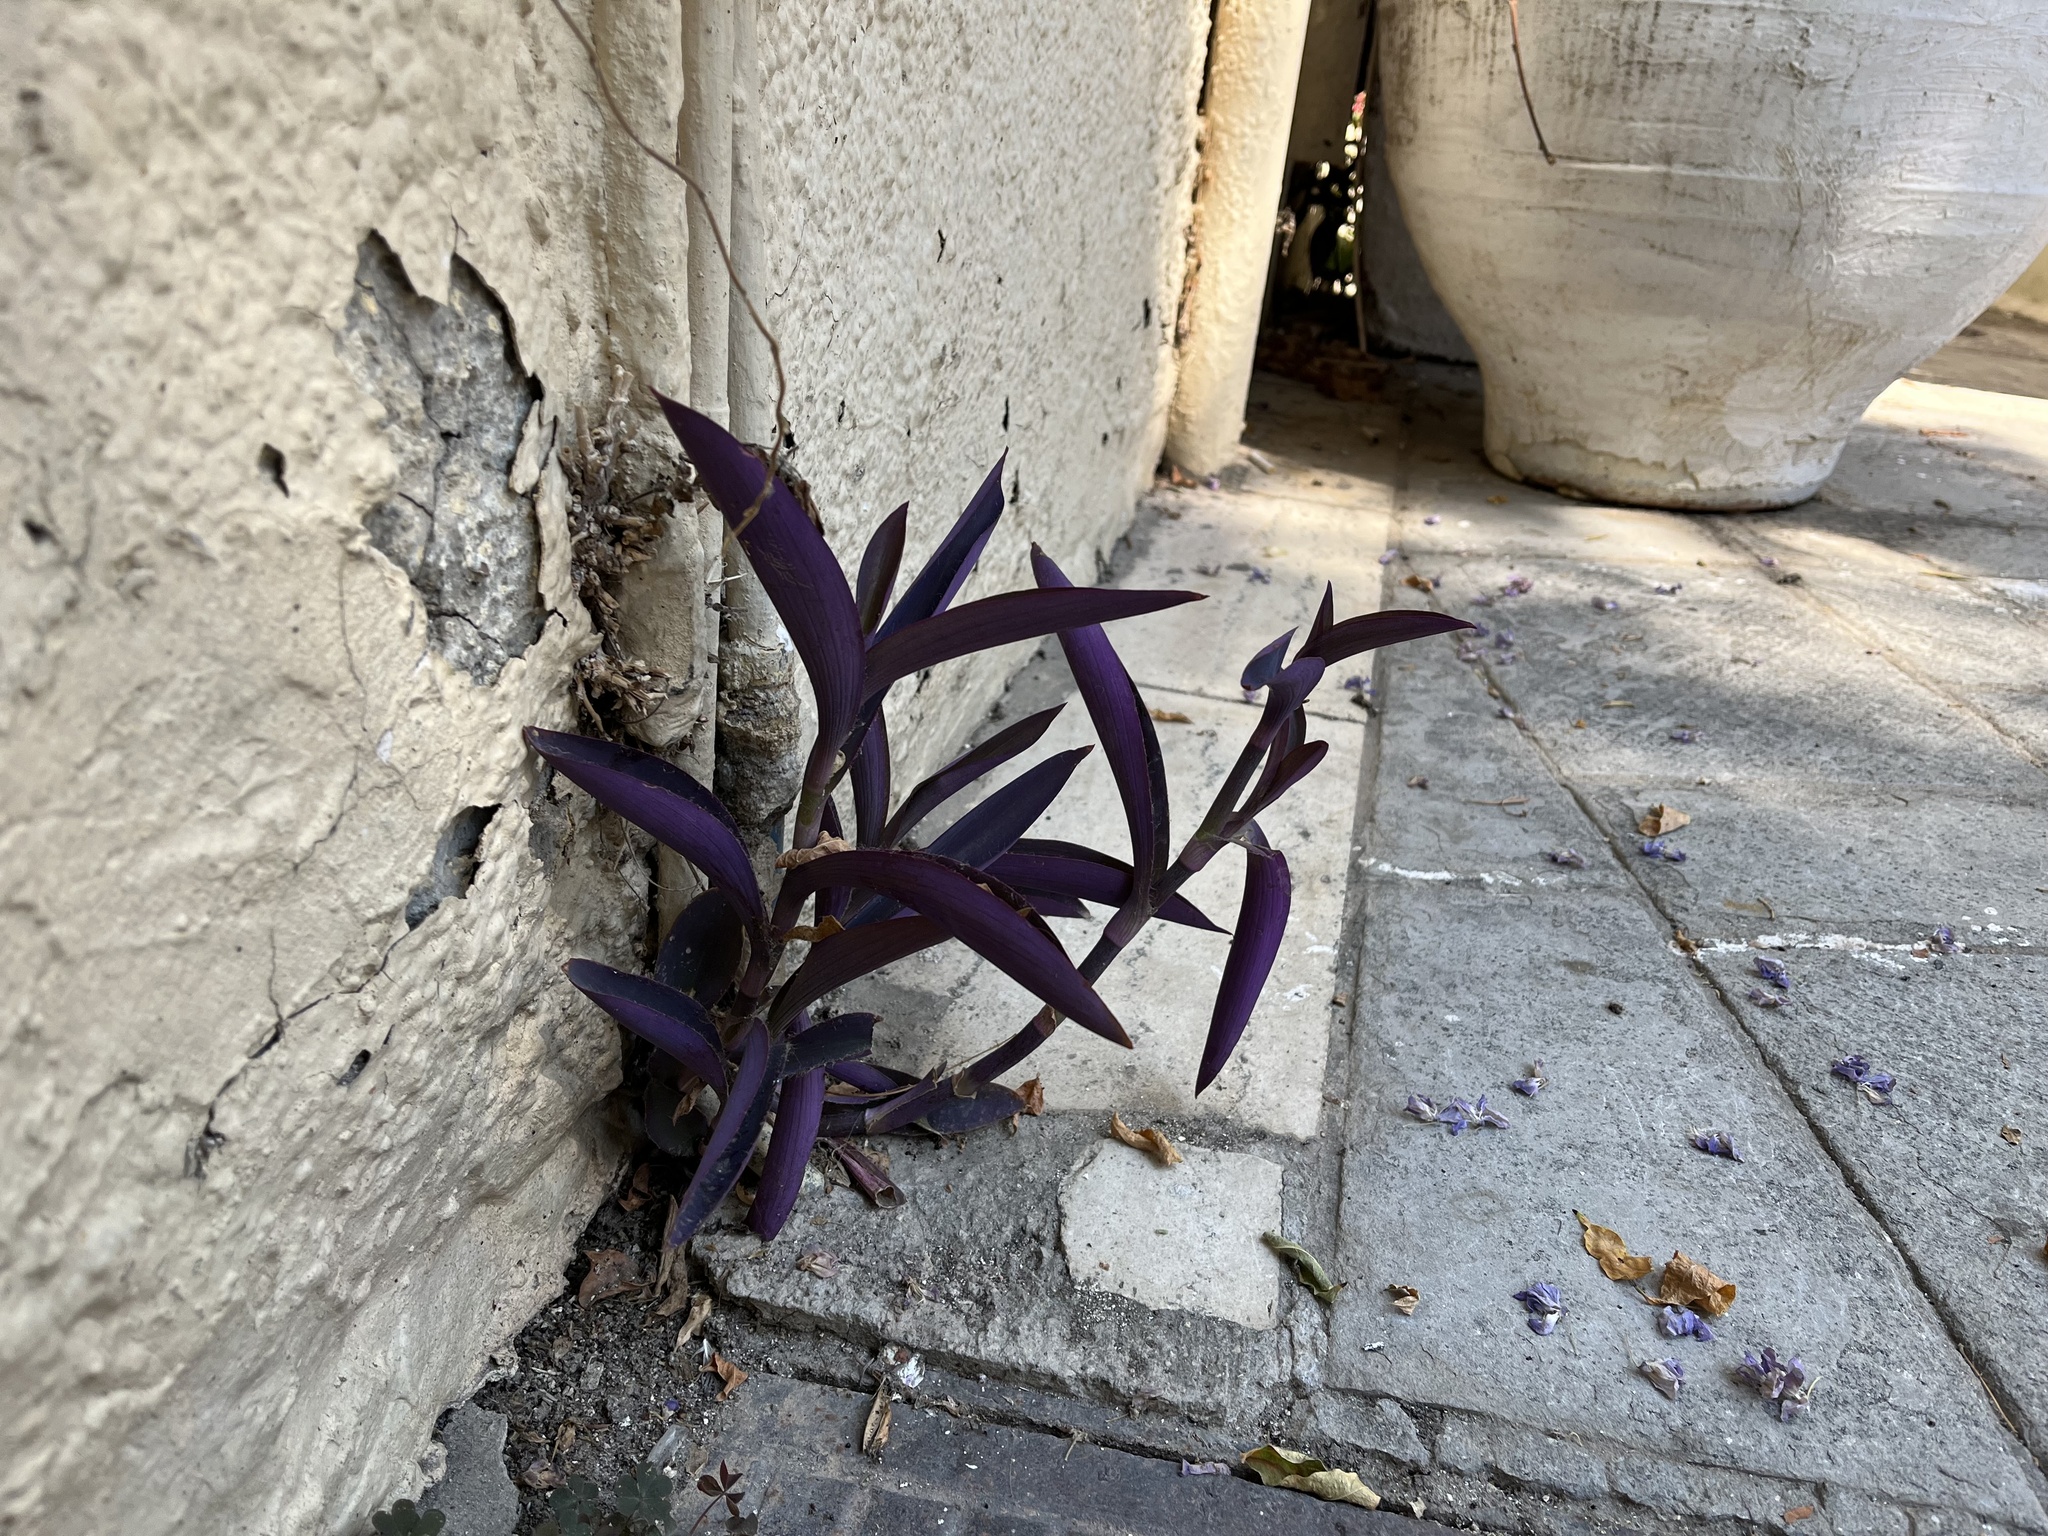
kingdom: Plantae
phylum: Tracheophyta
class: Liliopsida
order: Commelinales
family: Commelinaceae
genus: Tradescantia
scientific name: Tradescantia pallida
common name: Purpleheart
